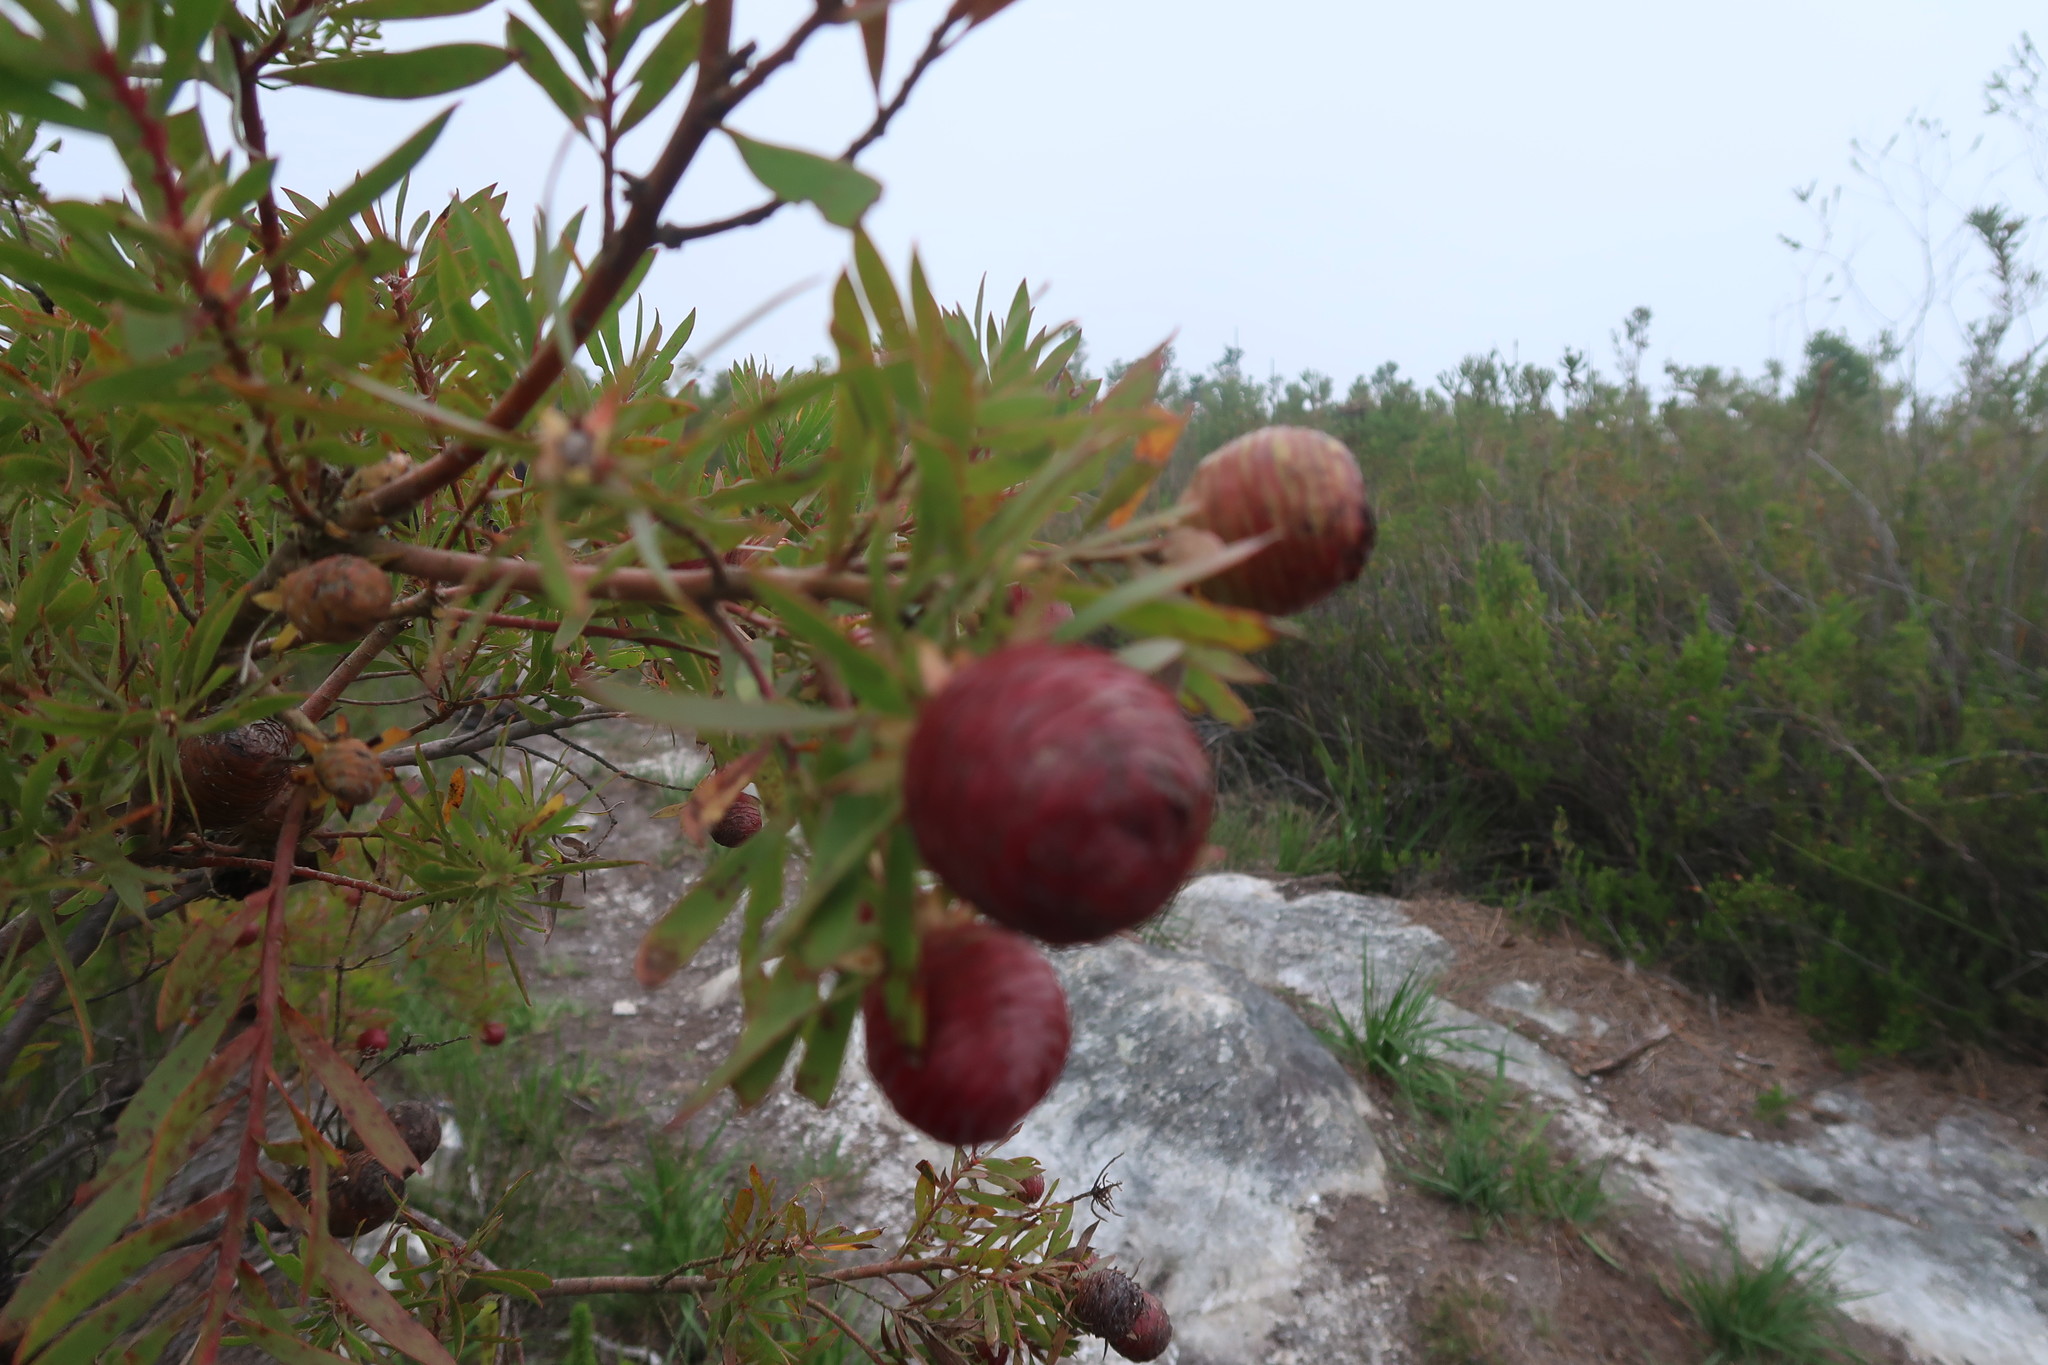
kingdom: Plantae
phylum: Tracheophyta
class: Magnoliopsida
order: Proteales
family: Proteaceae
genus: Leucadendron
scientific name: Leucadendron conicum
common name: Garden route conebush
